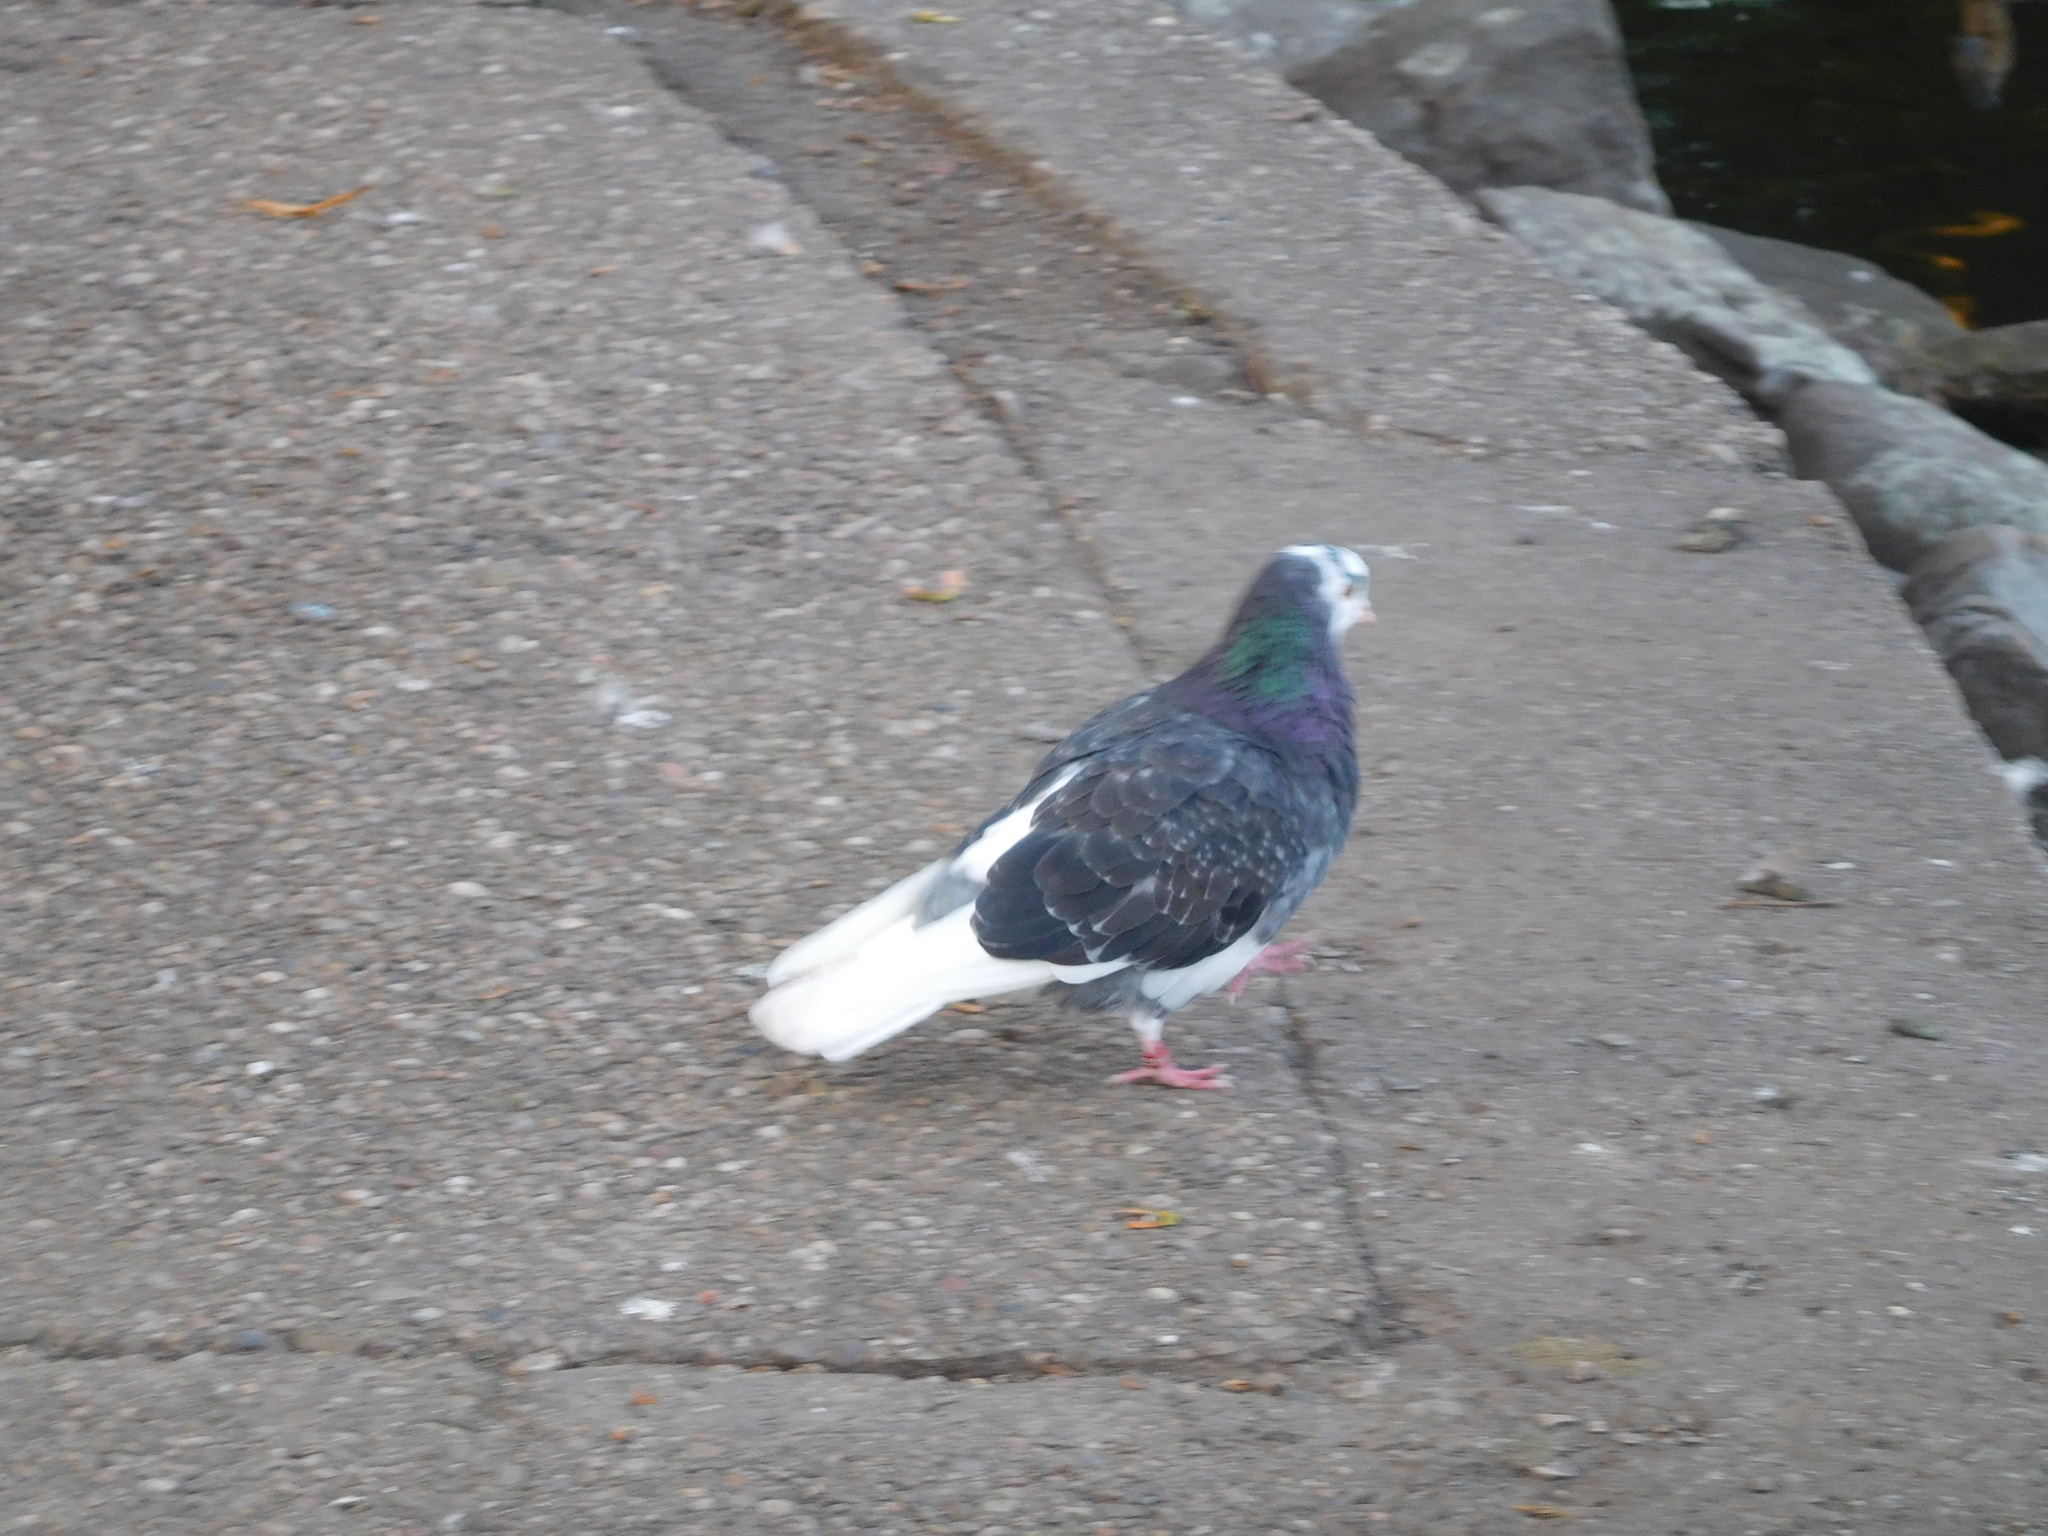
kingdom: Animalia
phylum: Chordata
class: Aves
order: Columbiformes
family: Columbidae
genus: Columba
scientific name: Columba livia
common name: Rock pigeon
